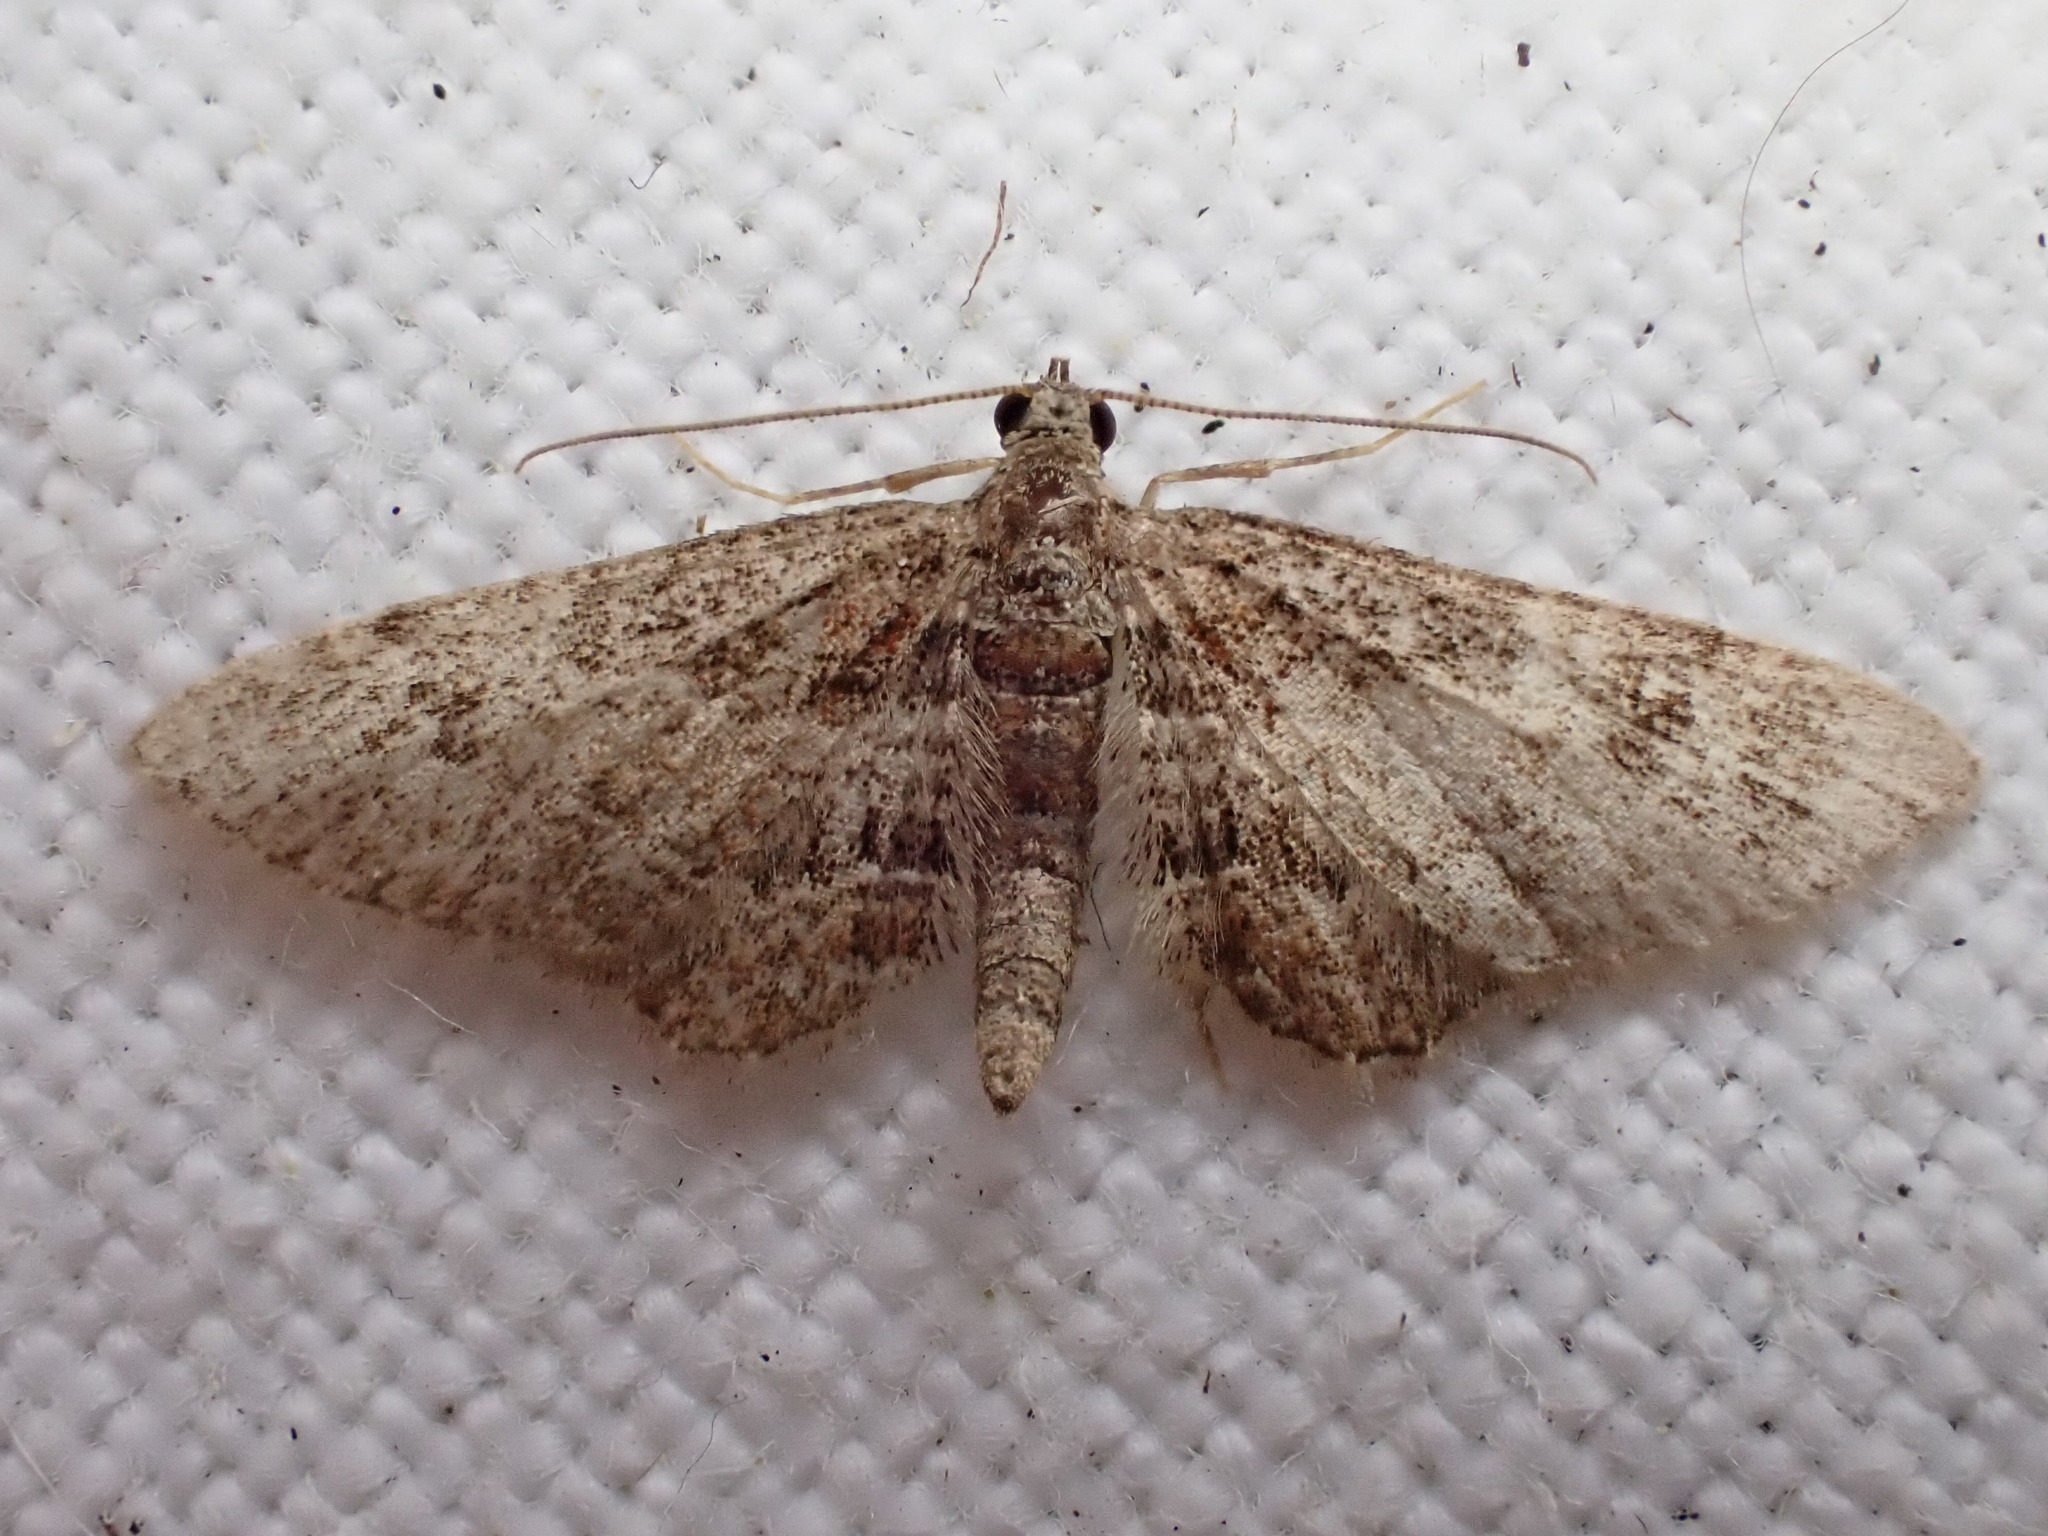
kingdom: Animalia
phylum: Arthropoda
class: Insecta
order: Lepidoptera
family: Geometridae
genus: Gymnoscelis
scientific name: Gymnoscelis rufifasciata
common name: Double-striped pug
